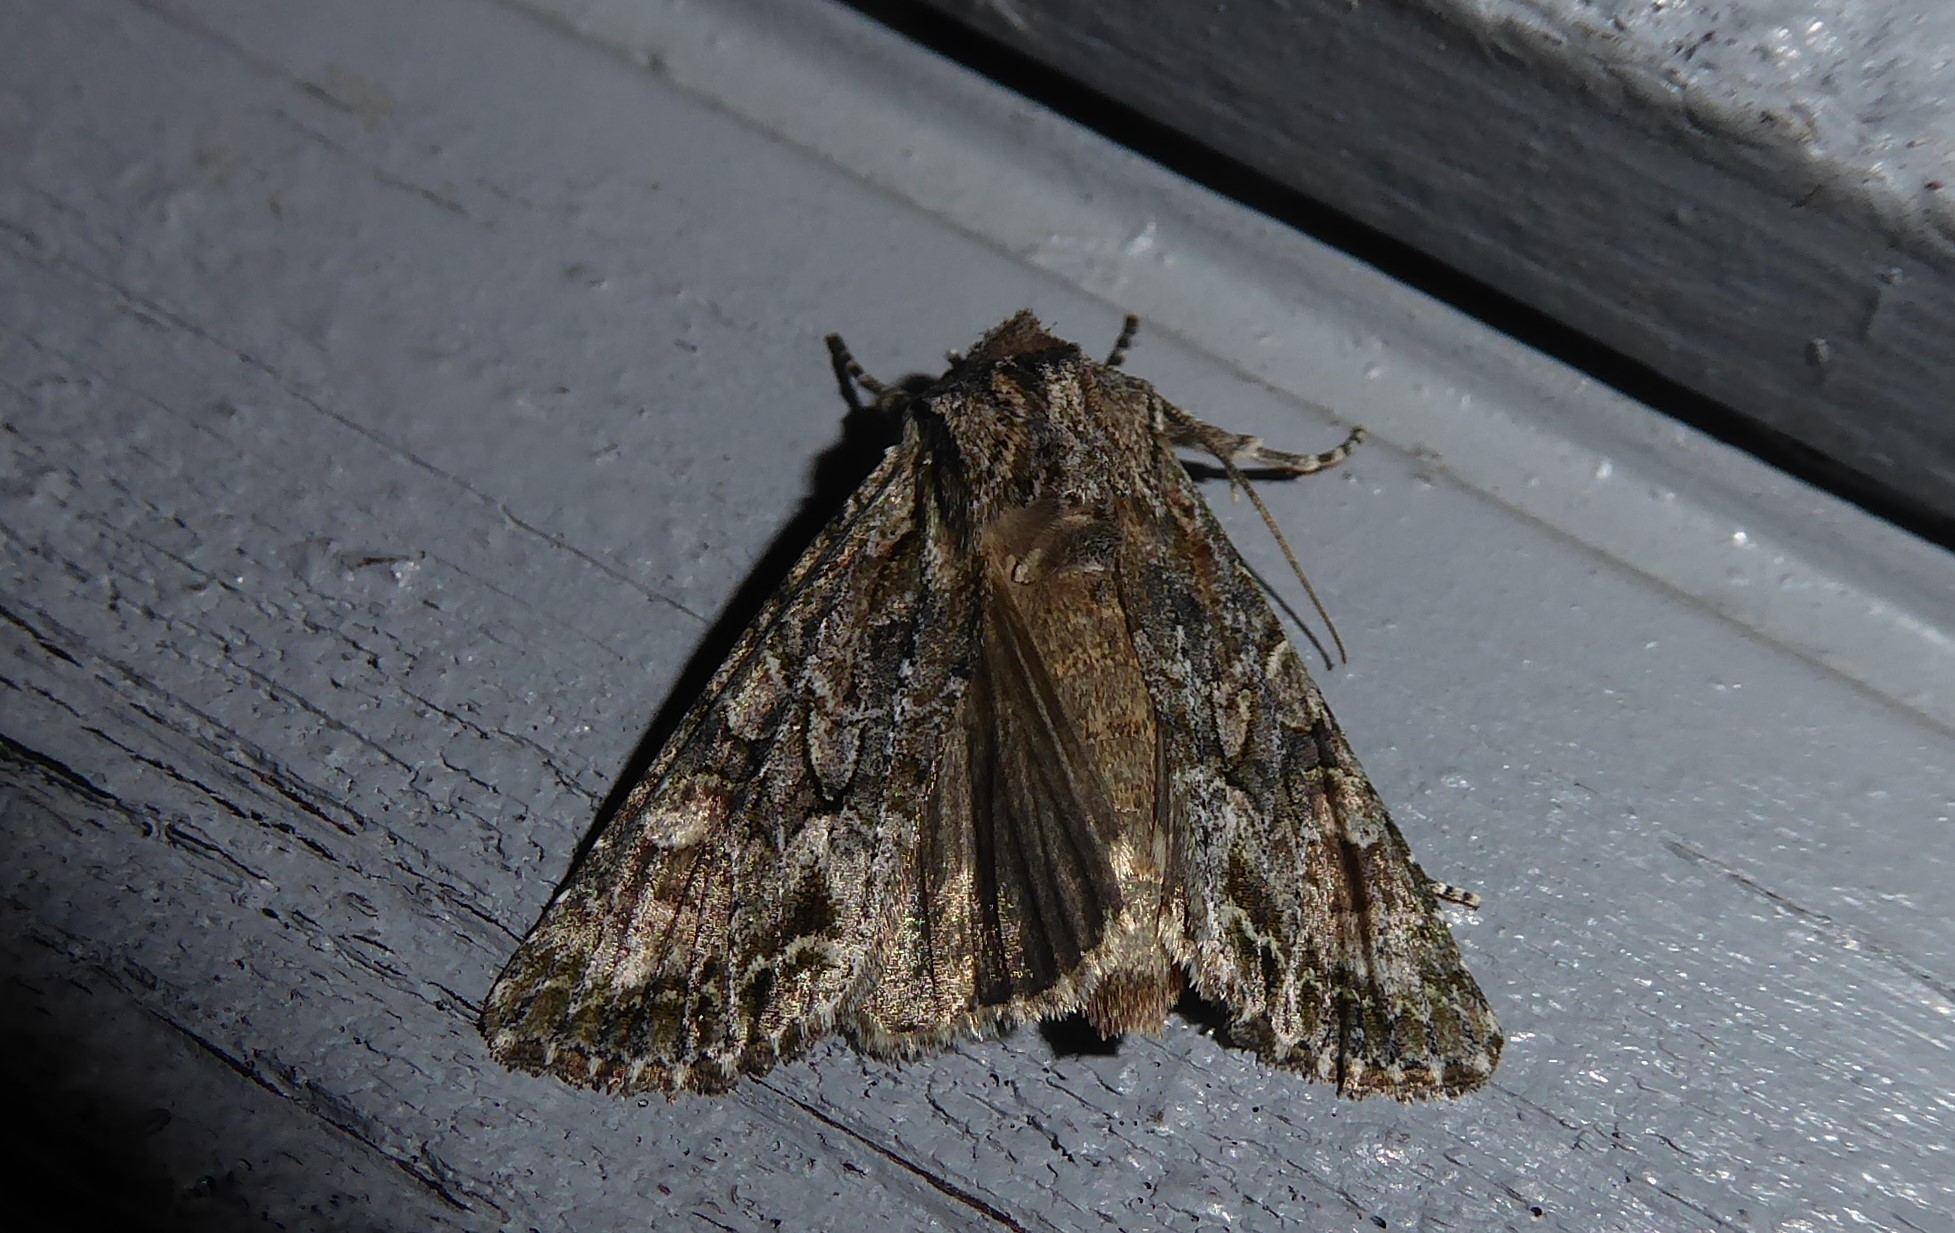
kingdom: Animalia
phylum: Arthropoda
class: Insecta
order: Lepidoptera
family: Noctuidae
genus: Ichneutica
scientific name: Ichneutica mutans
